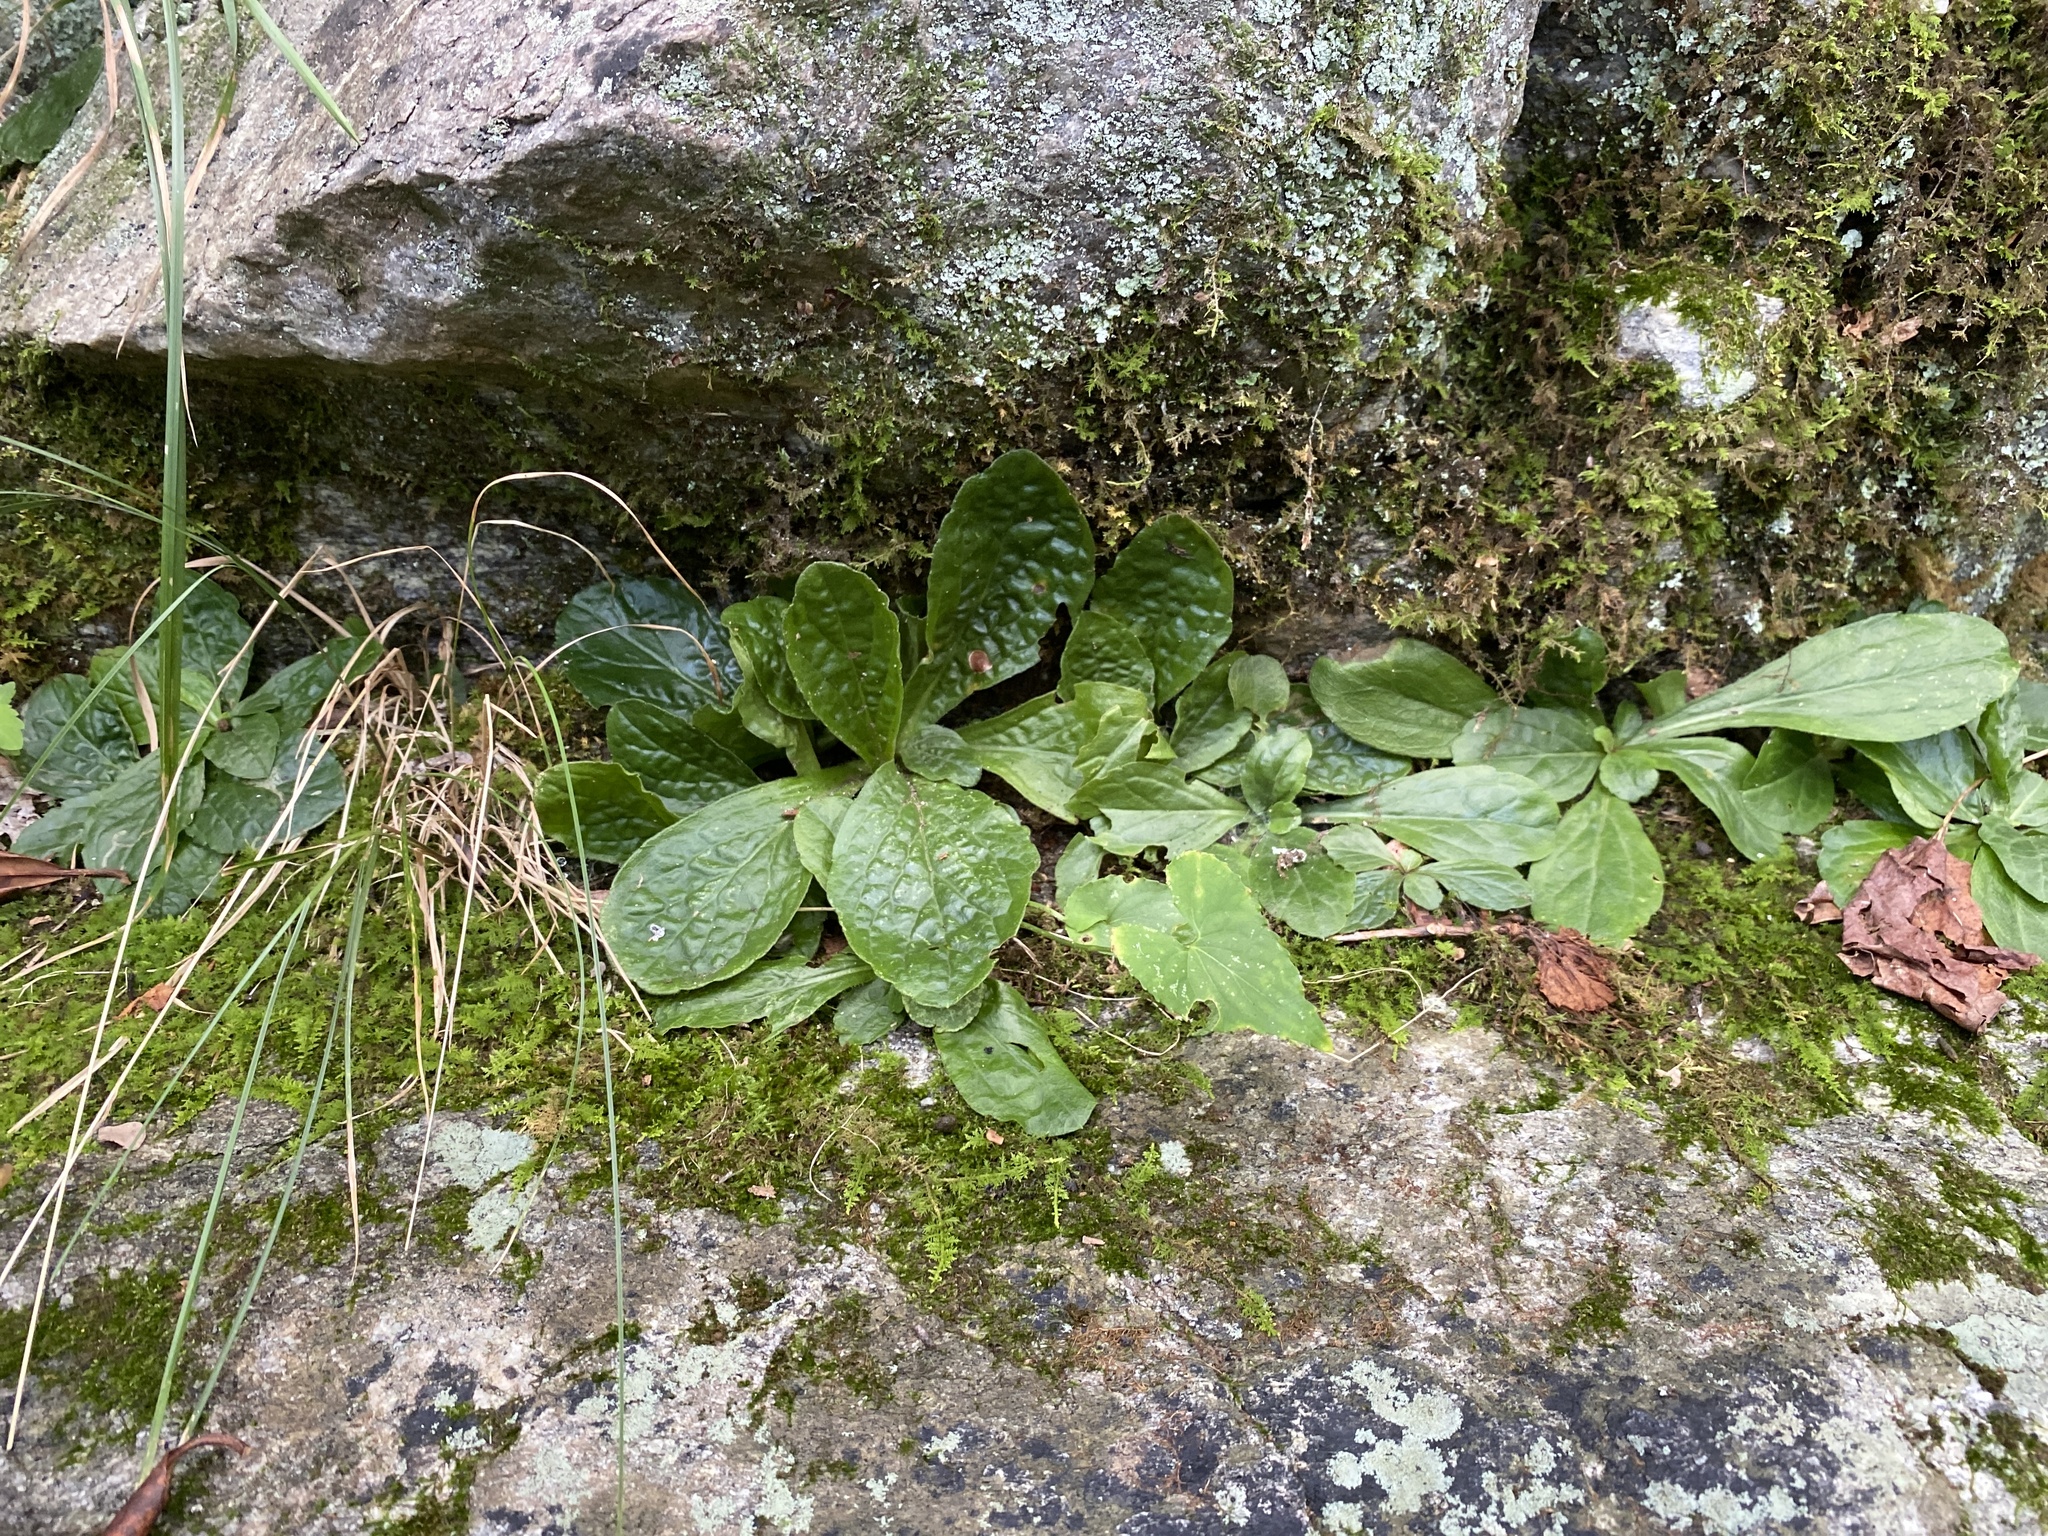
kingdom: Plantae
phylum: Tracheophyta
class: Magnoliopsida
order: Asterales
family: Asteraceae
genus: Erigeron
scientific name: Erigeron pulchellus
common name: Hairy fleabane
